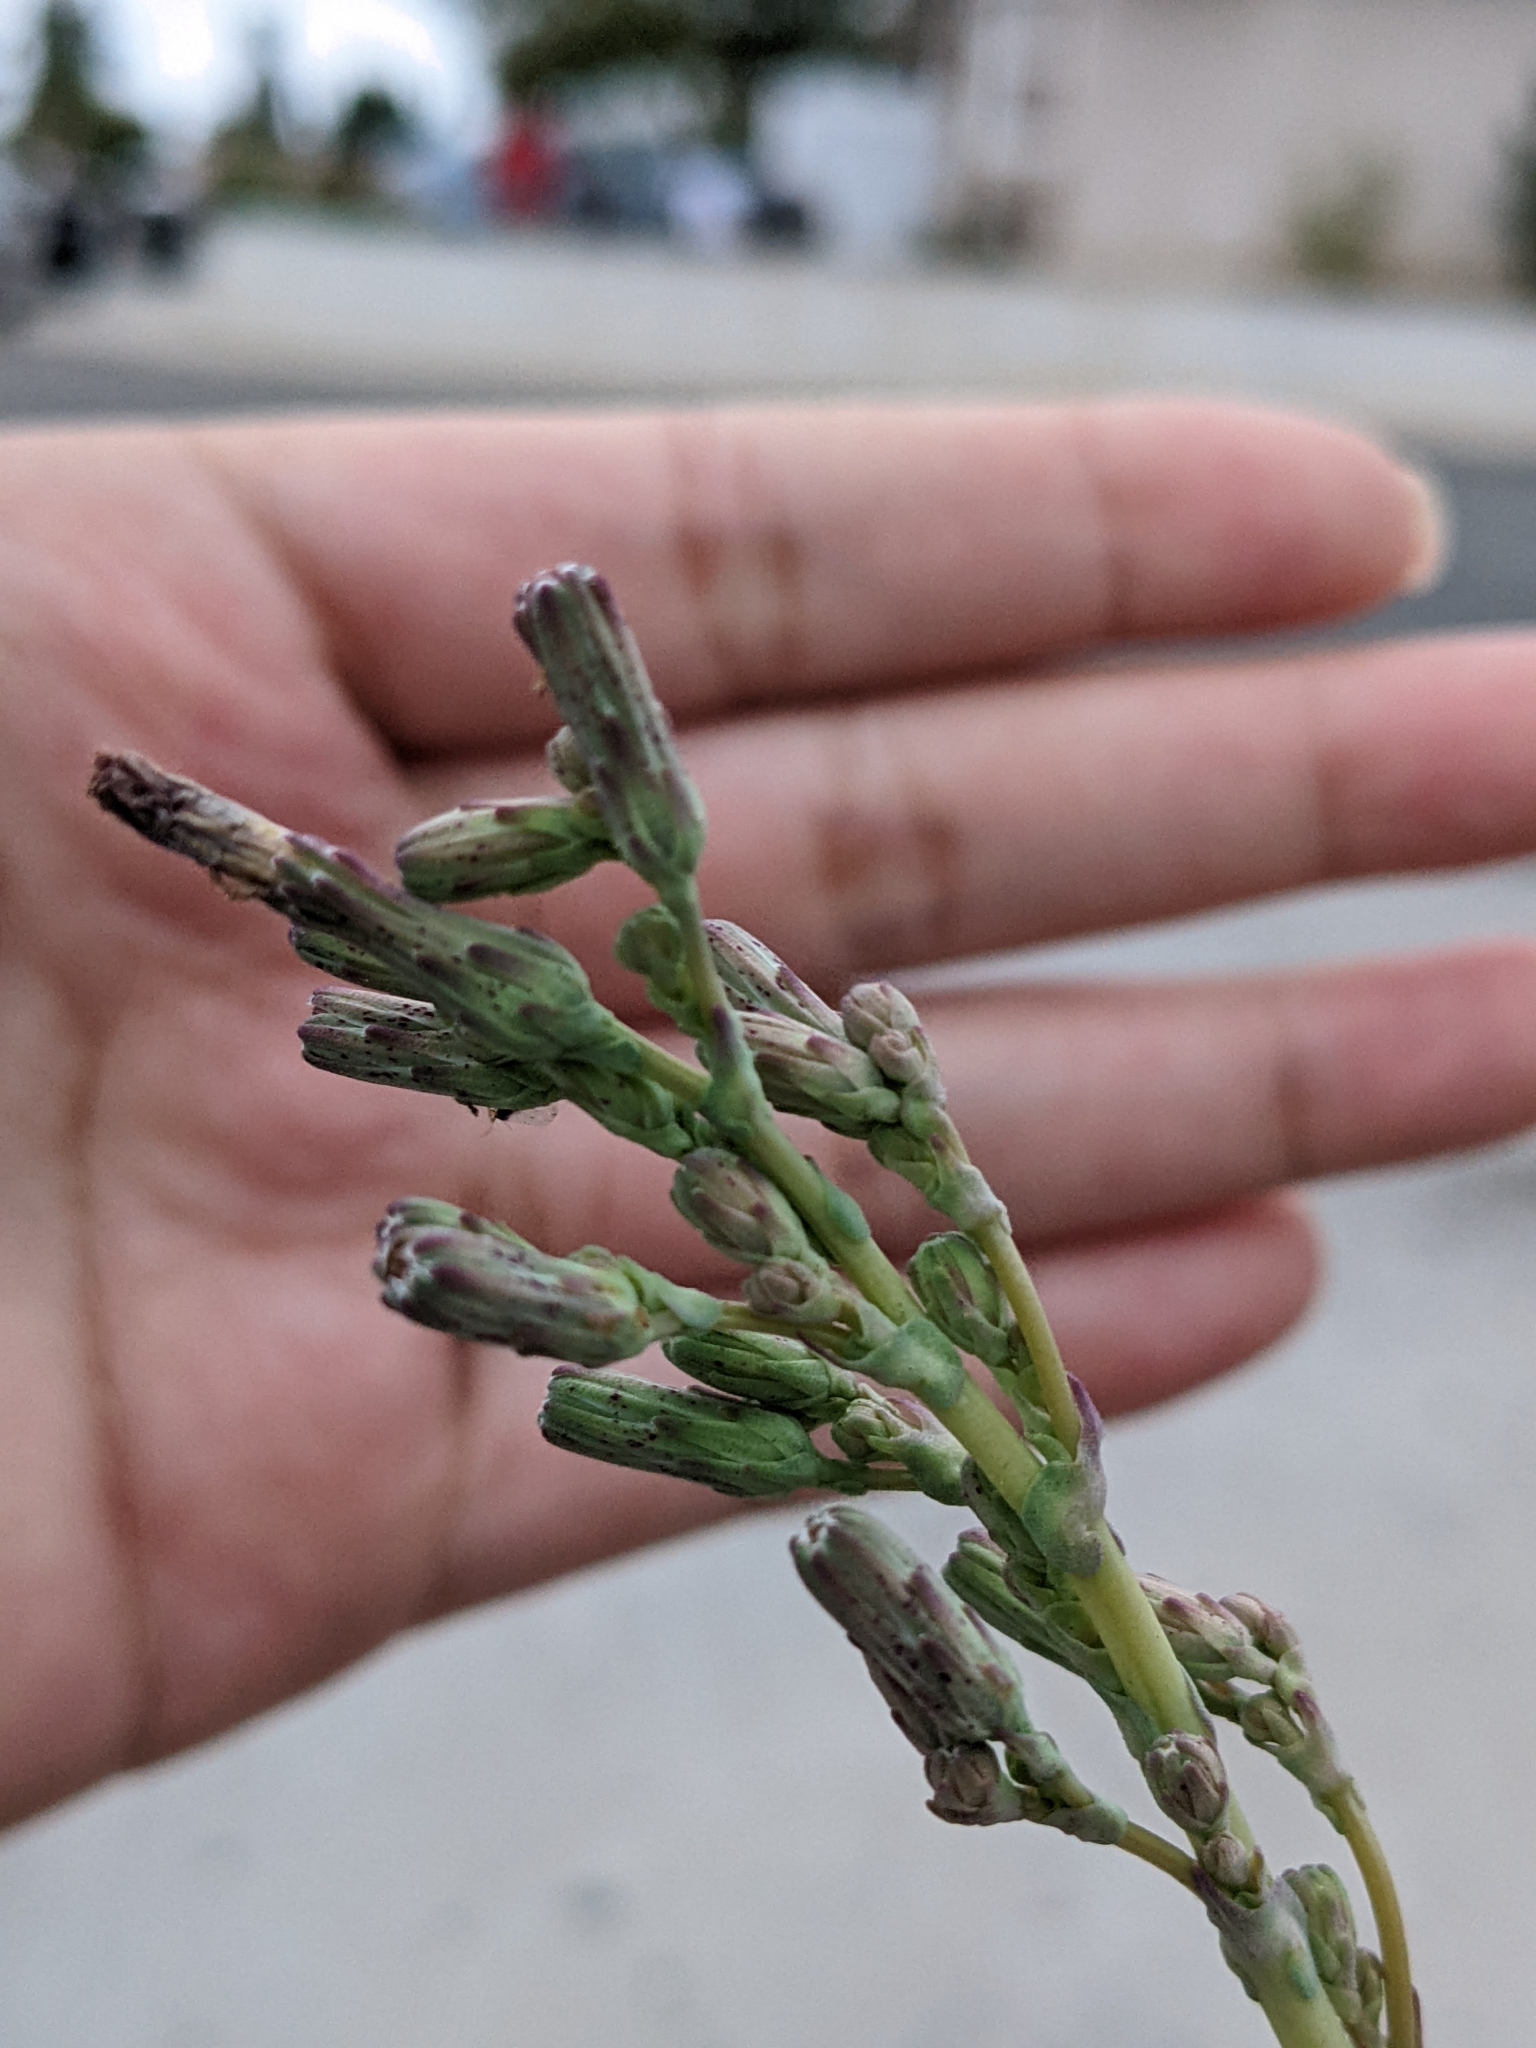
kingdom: Plantae
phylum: Tracheophyta
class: Magnoliopsida
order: Asterales
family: Asteraceae
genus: Lactuca
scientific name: Lactuca serriola
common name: Prickly lettuce
